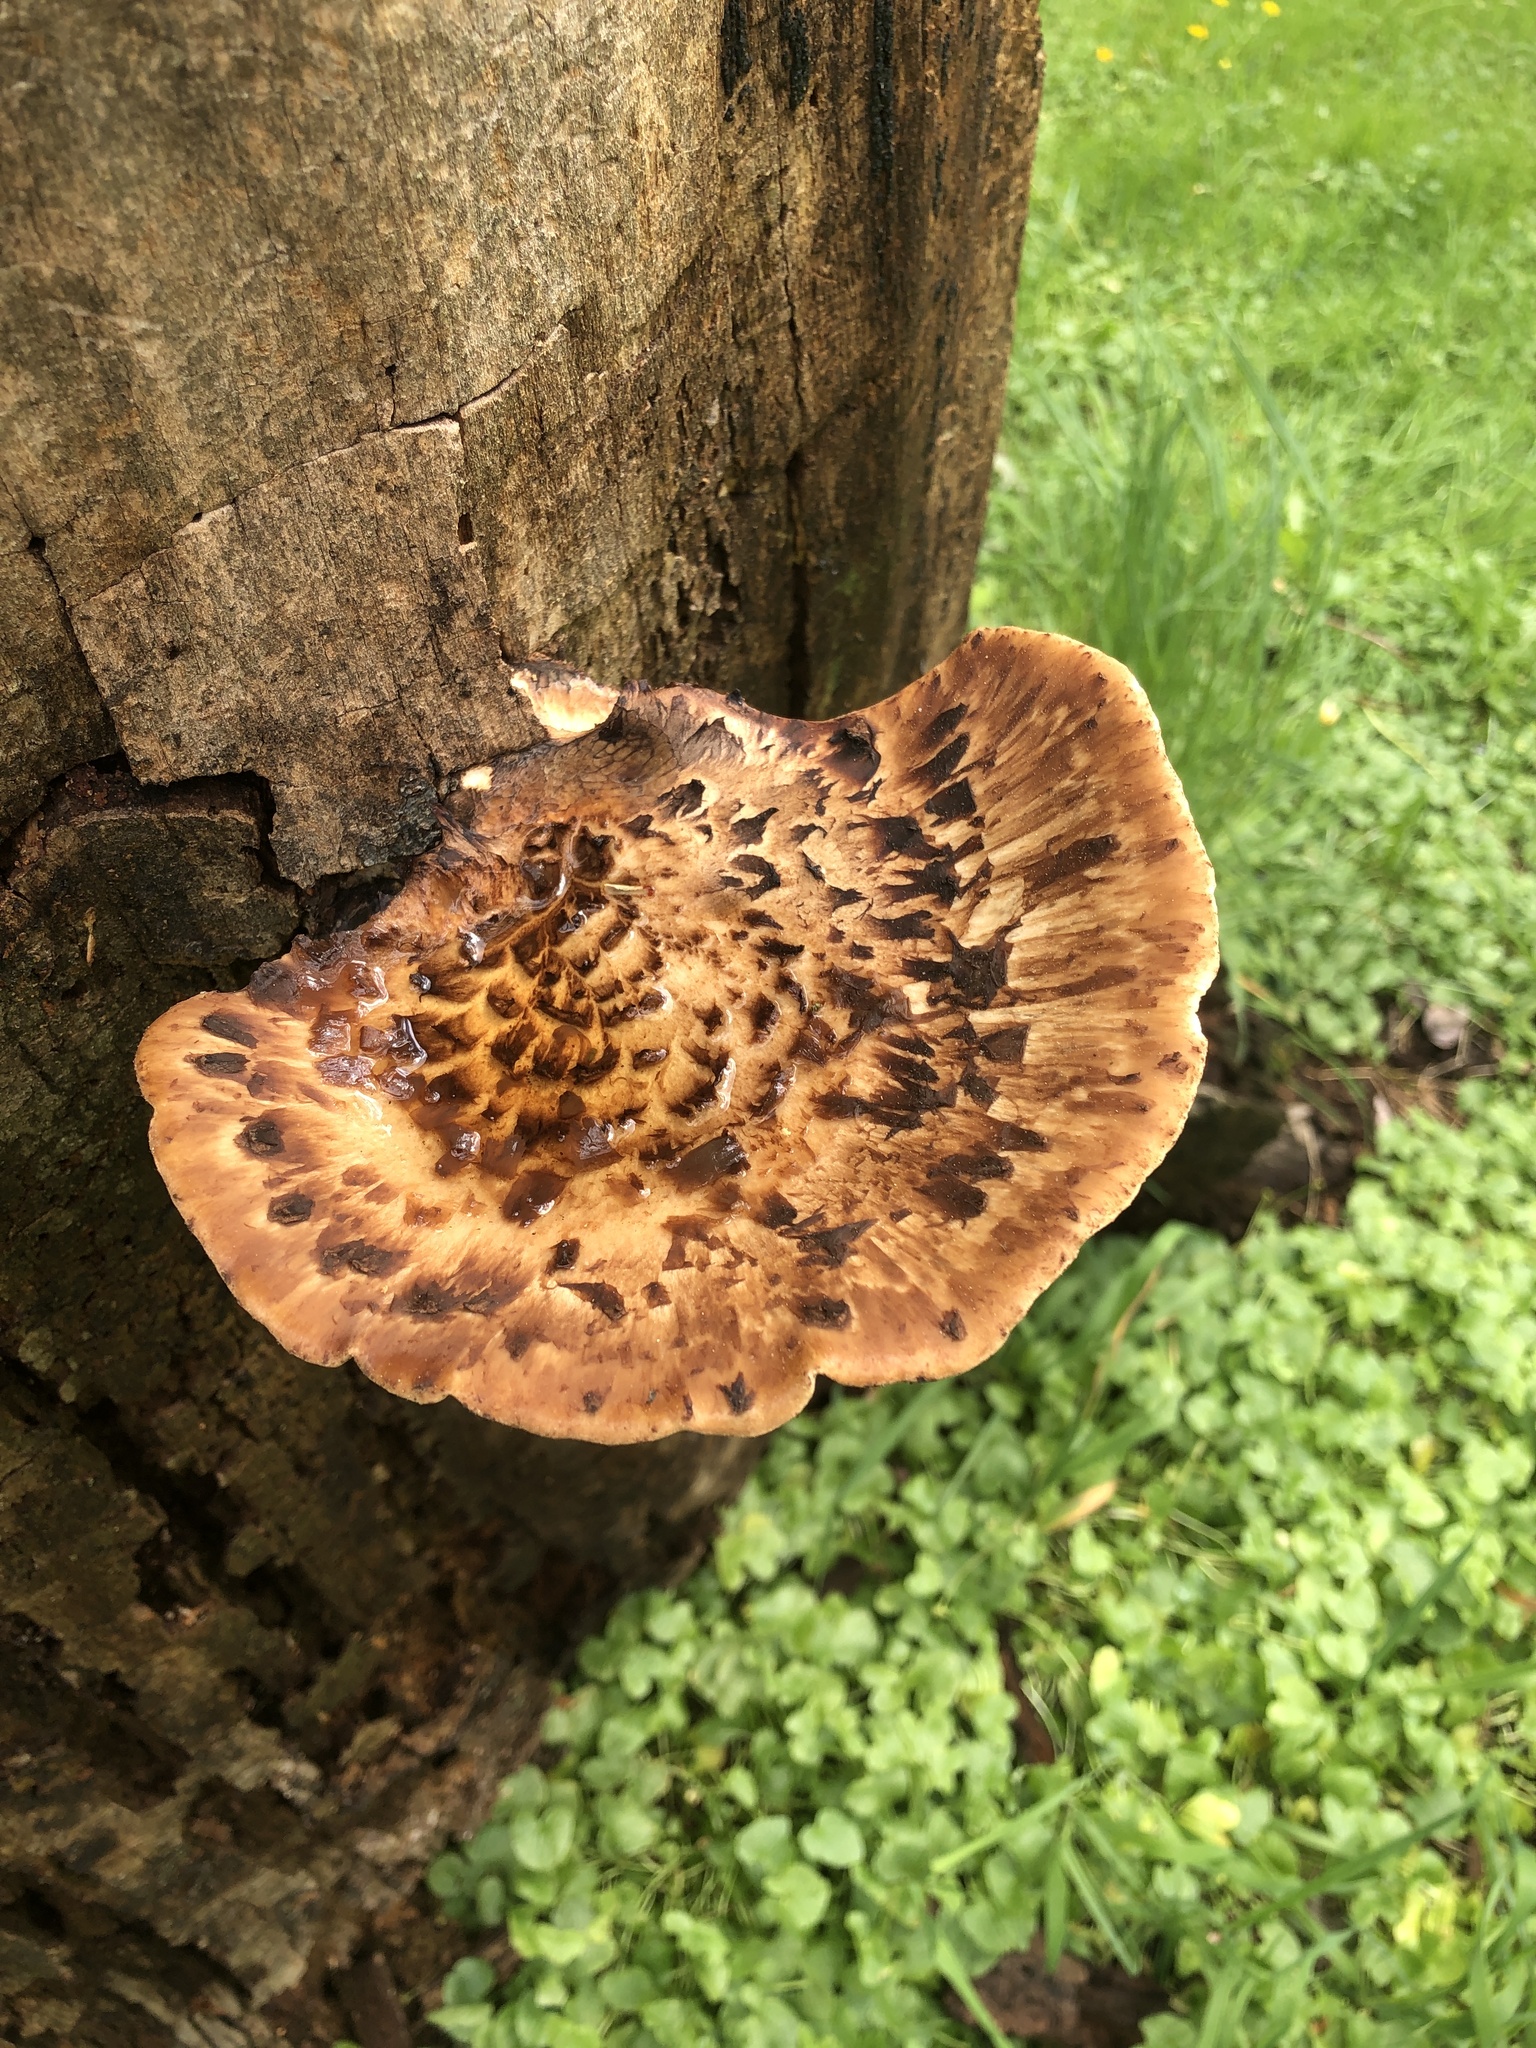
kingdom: Fungi
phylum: Basidiomycota
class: Agaricomycetes
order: Polyporales
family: Polyporaceae
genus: Cerioporus
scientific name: Cerioporus squamosus
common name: Dryad's saddle
